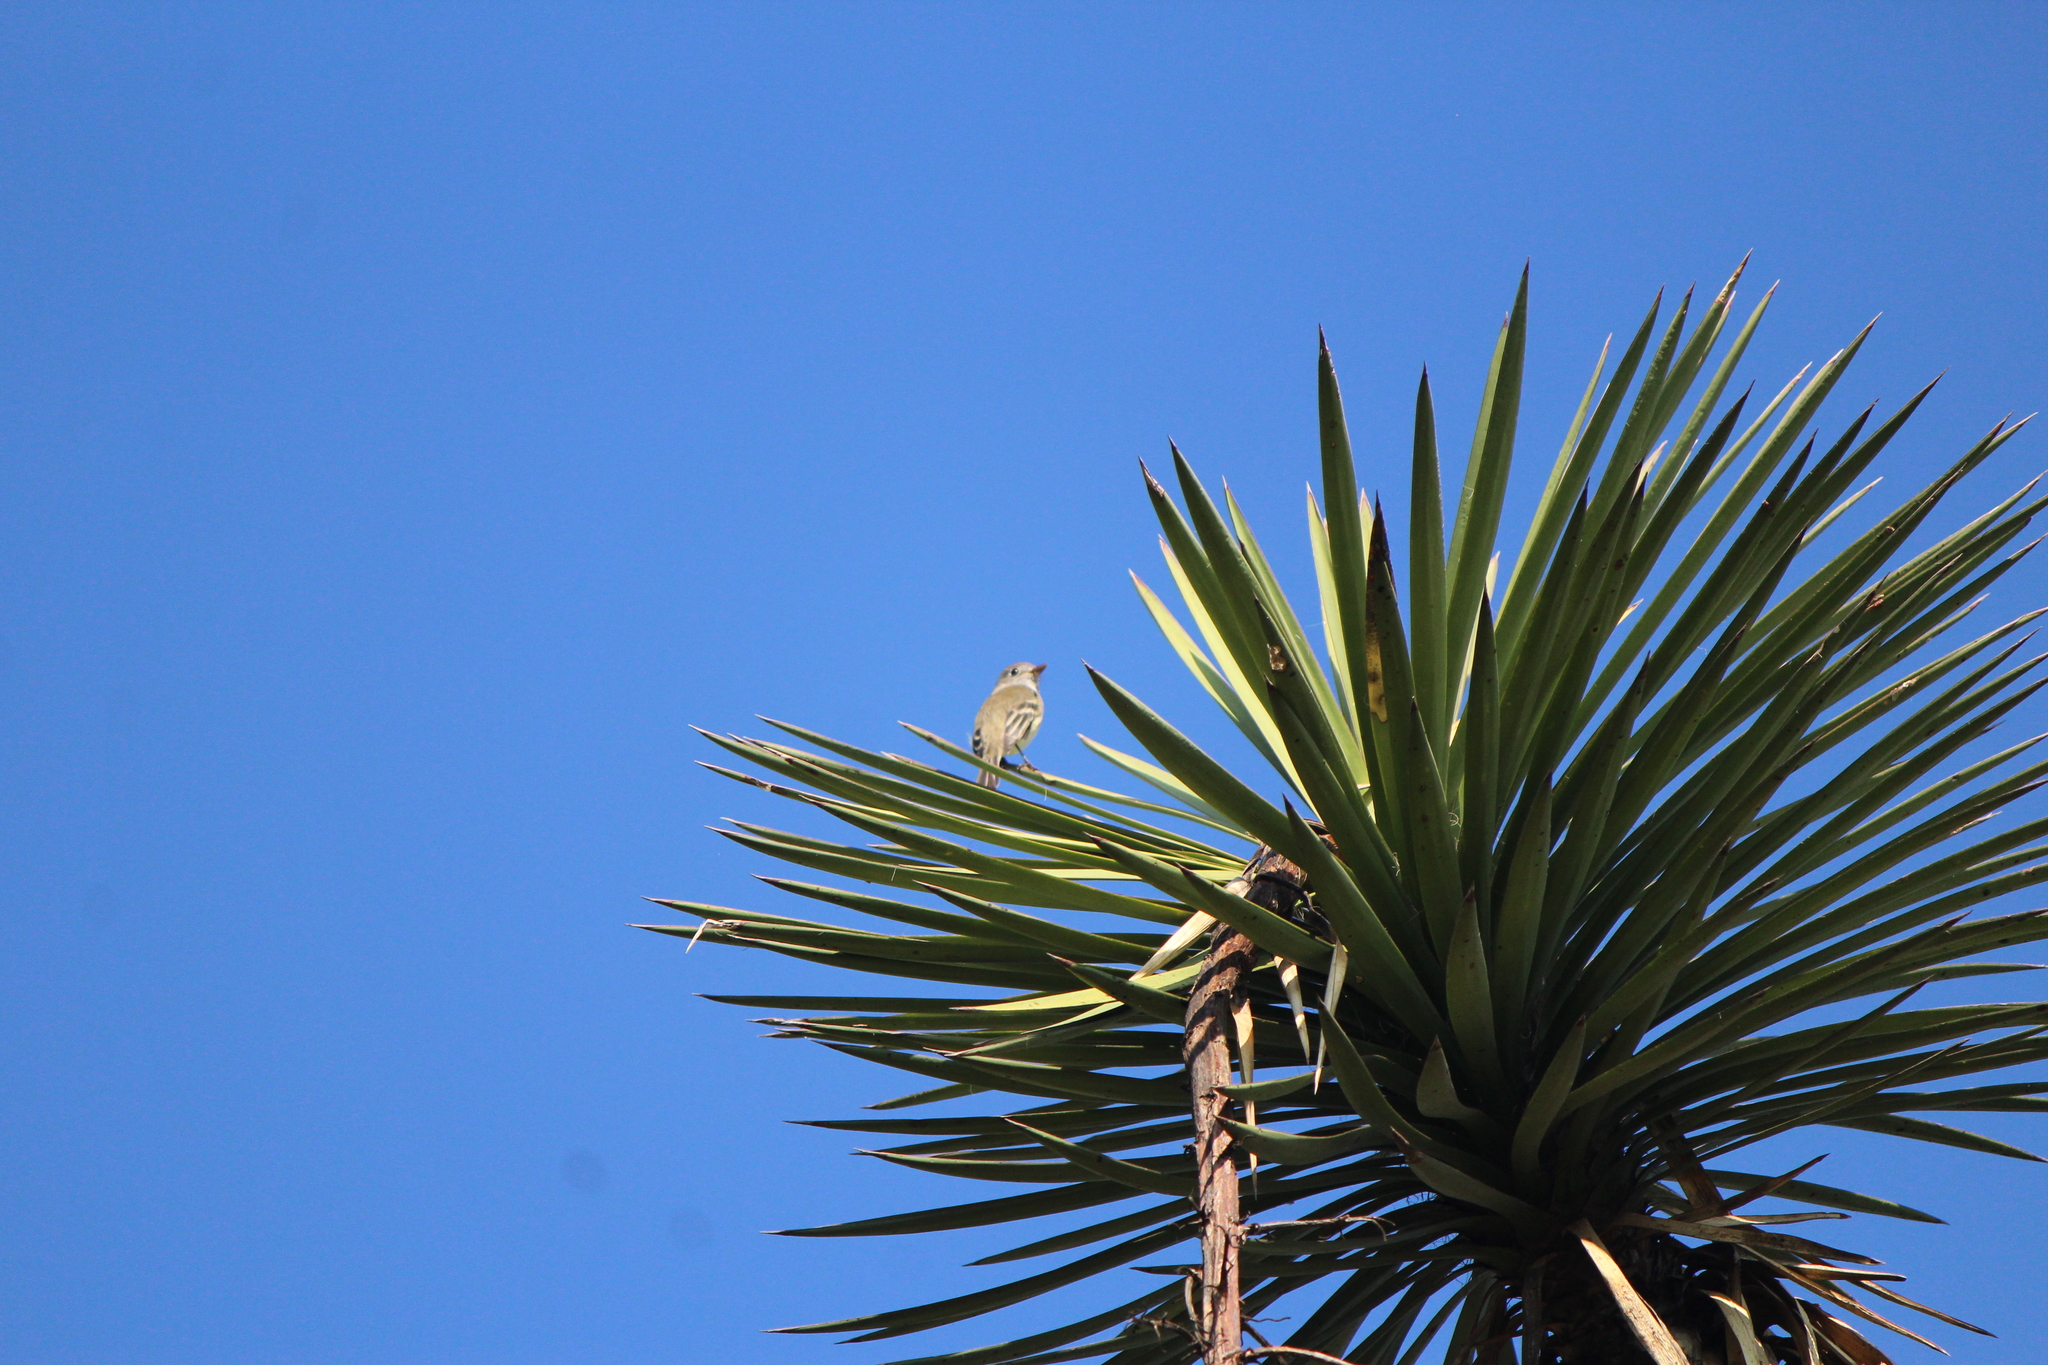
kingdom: Animalia
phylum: Chordata
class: Aves
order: Passeriformes
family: Tyrannidae
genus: Empidonax
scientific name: Empidonax
